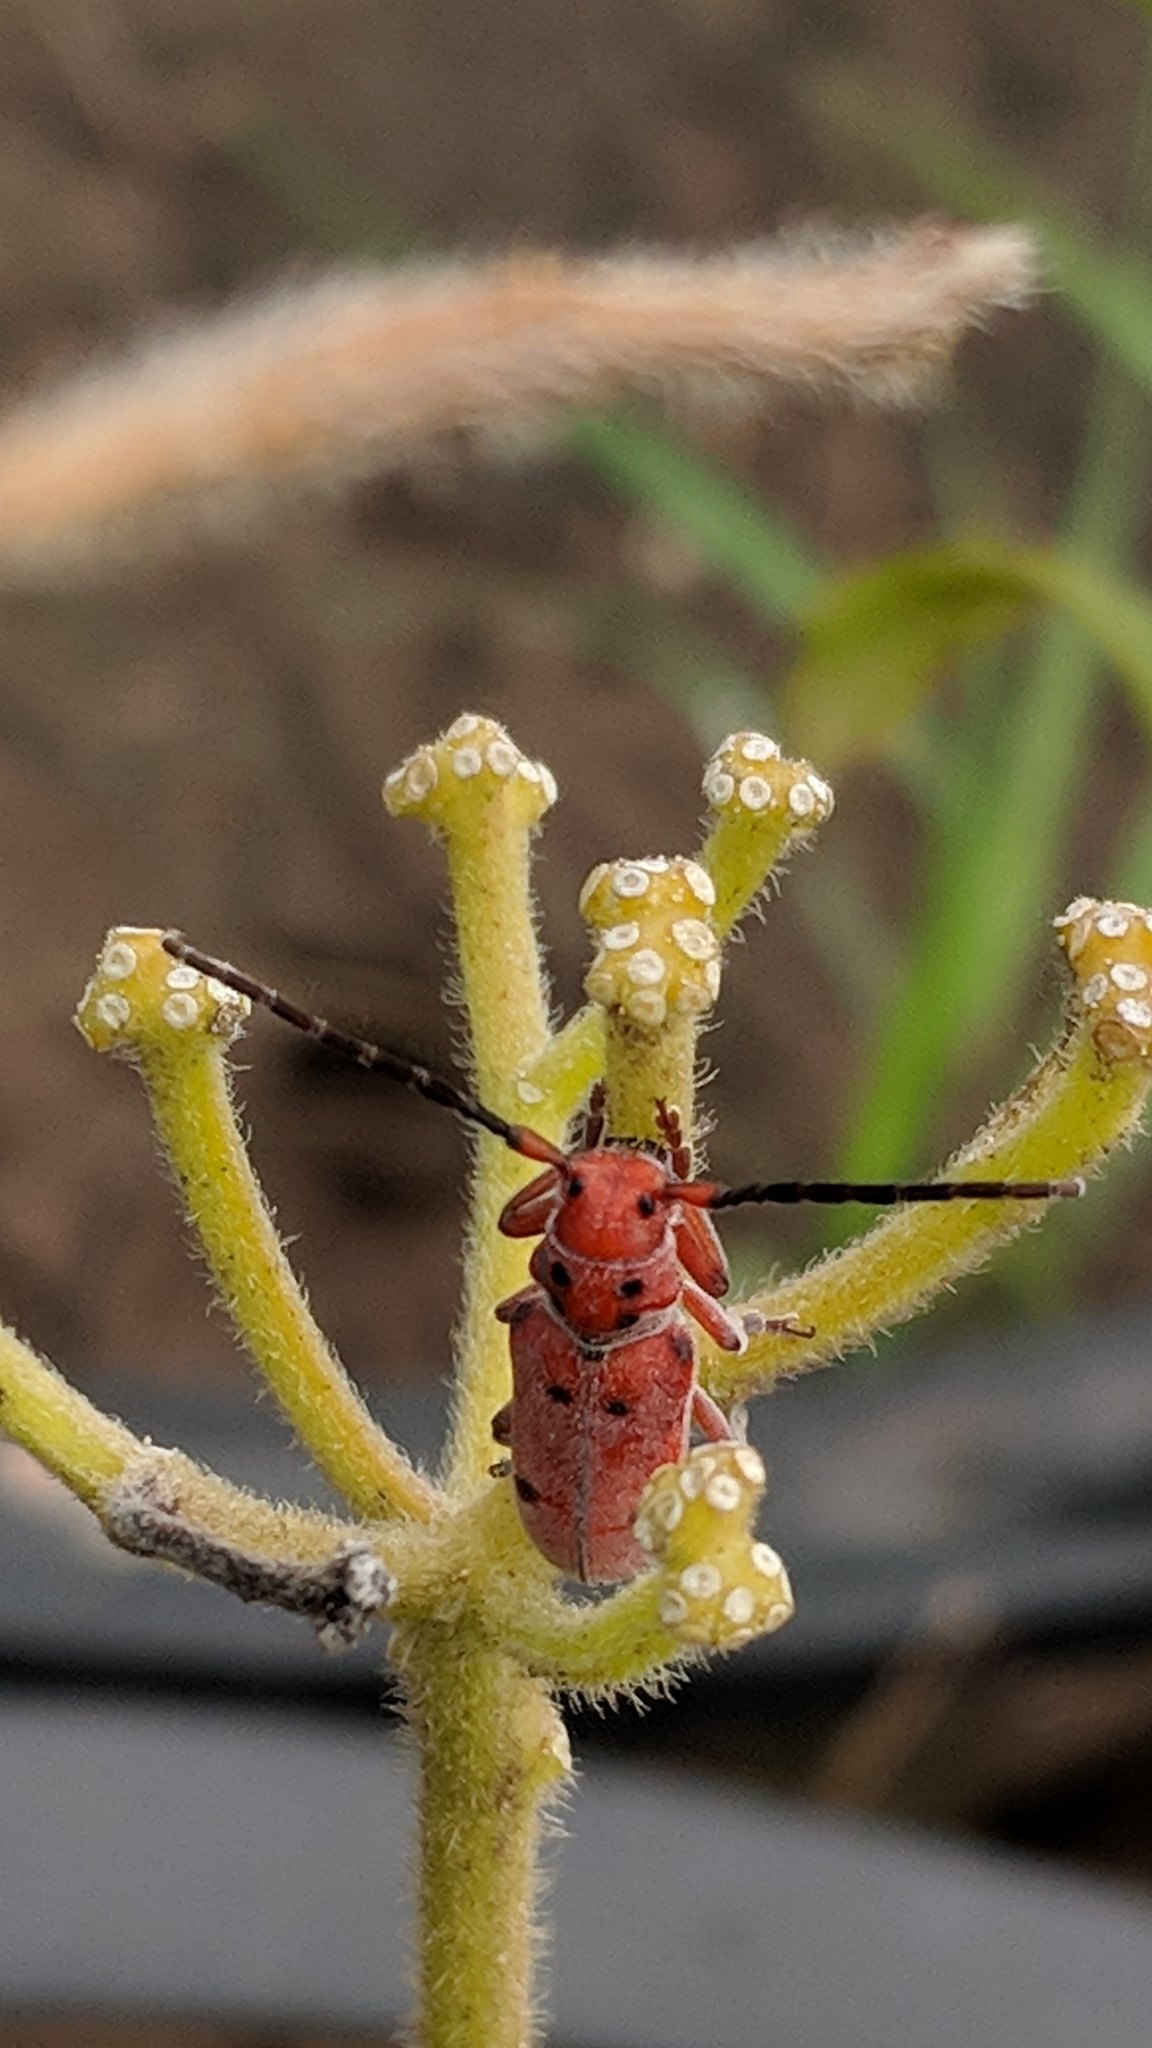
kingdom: Animalia
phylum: Arthropoda
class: Insecta
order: Coleoptera
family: Cerambycidae
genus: Tetraopes
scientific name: Tetraopes femoratus
